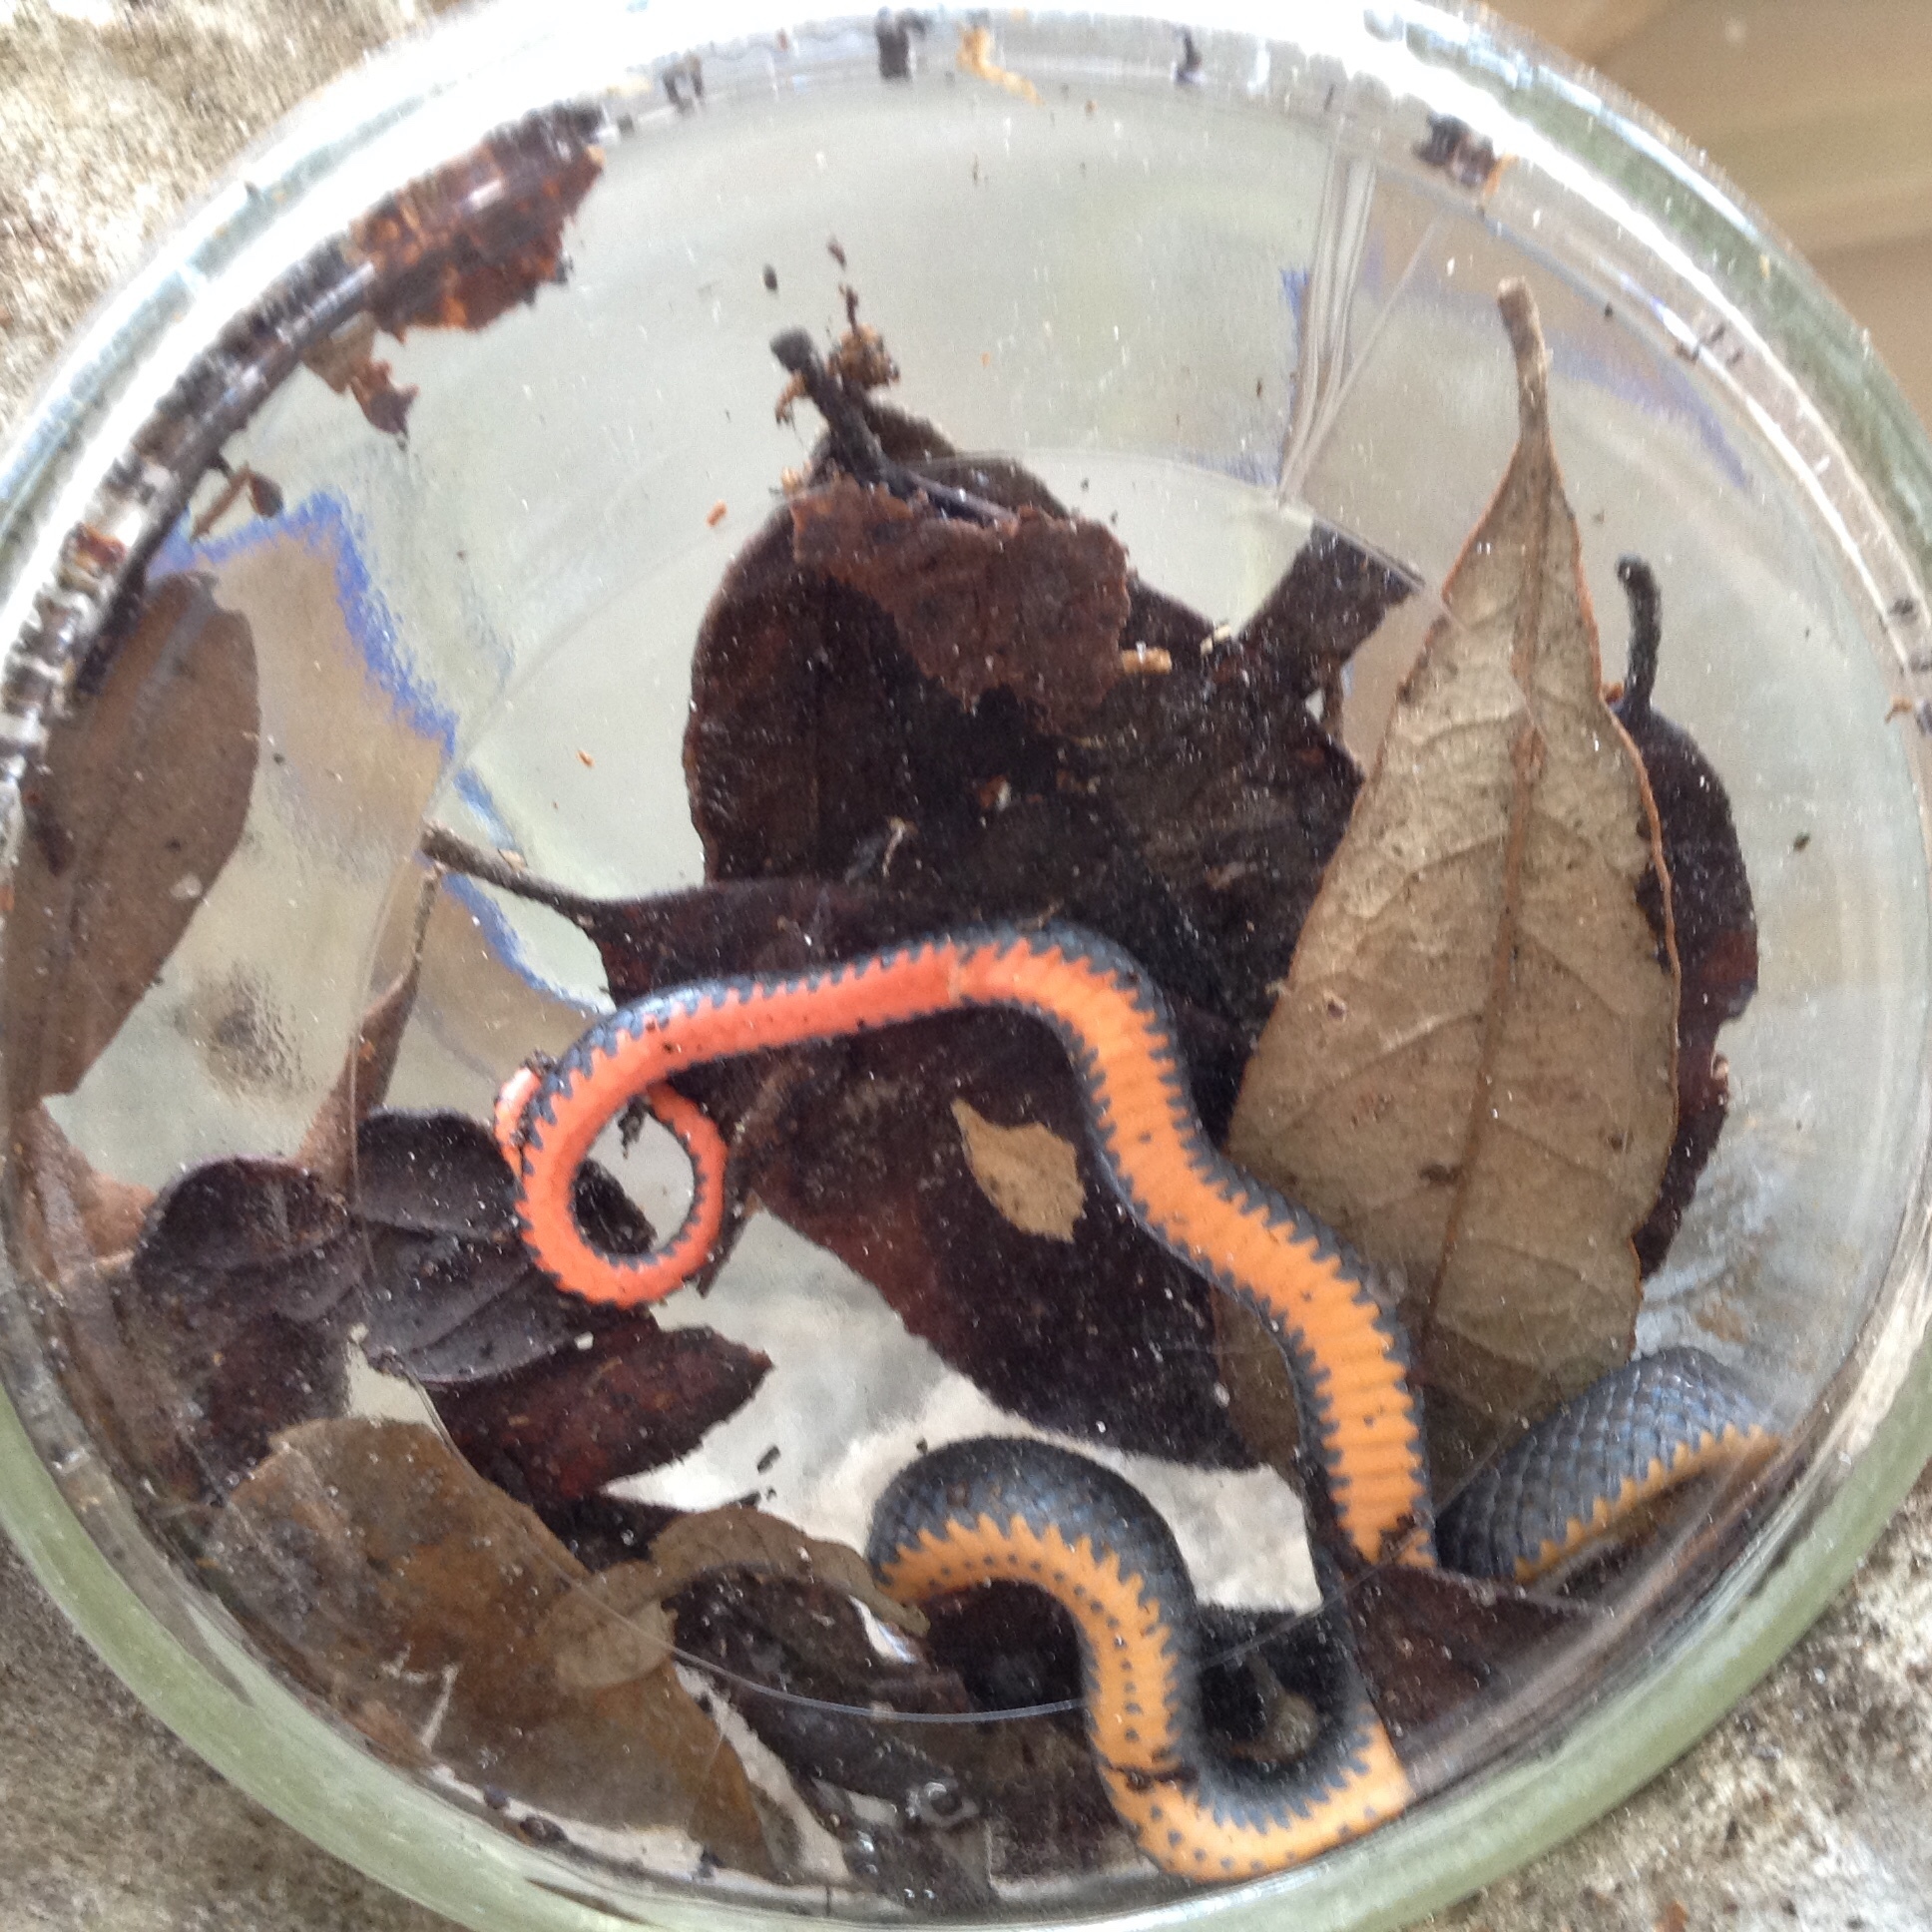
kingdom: Animalia
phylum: Chordata
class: Squamata
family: Colubridae
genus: Diadophis
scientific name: Diadophis punctatus
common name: Ringneck snake
